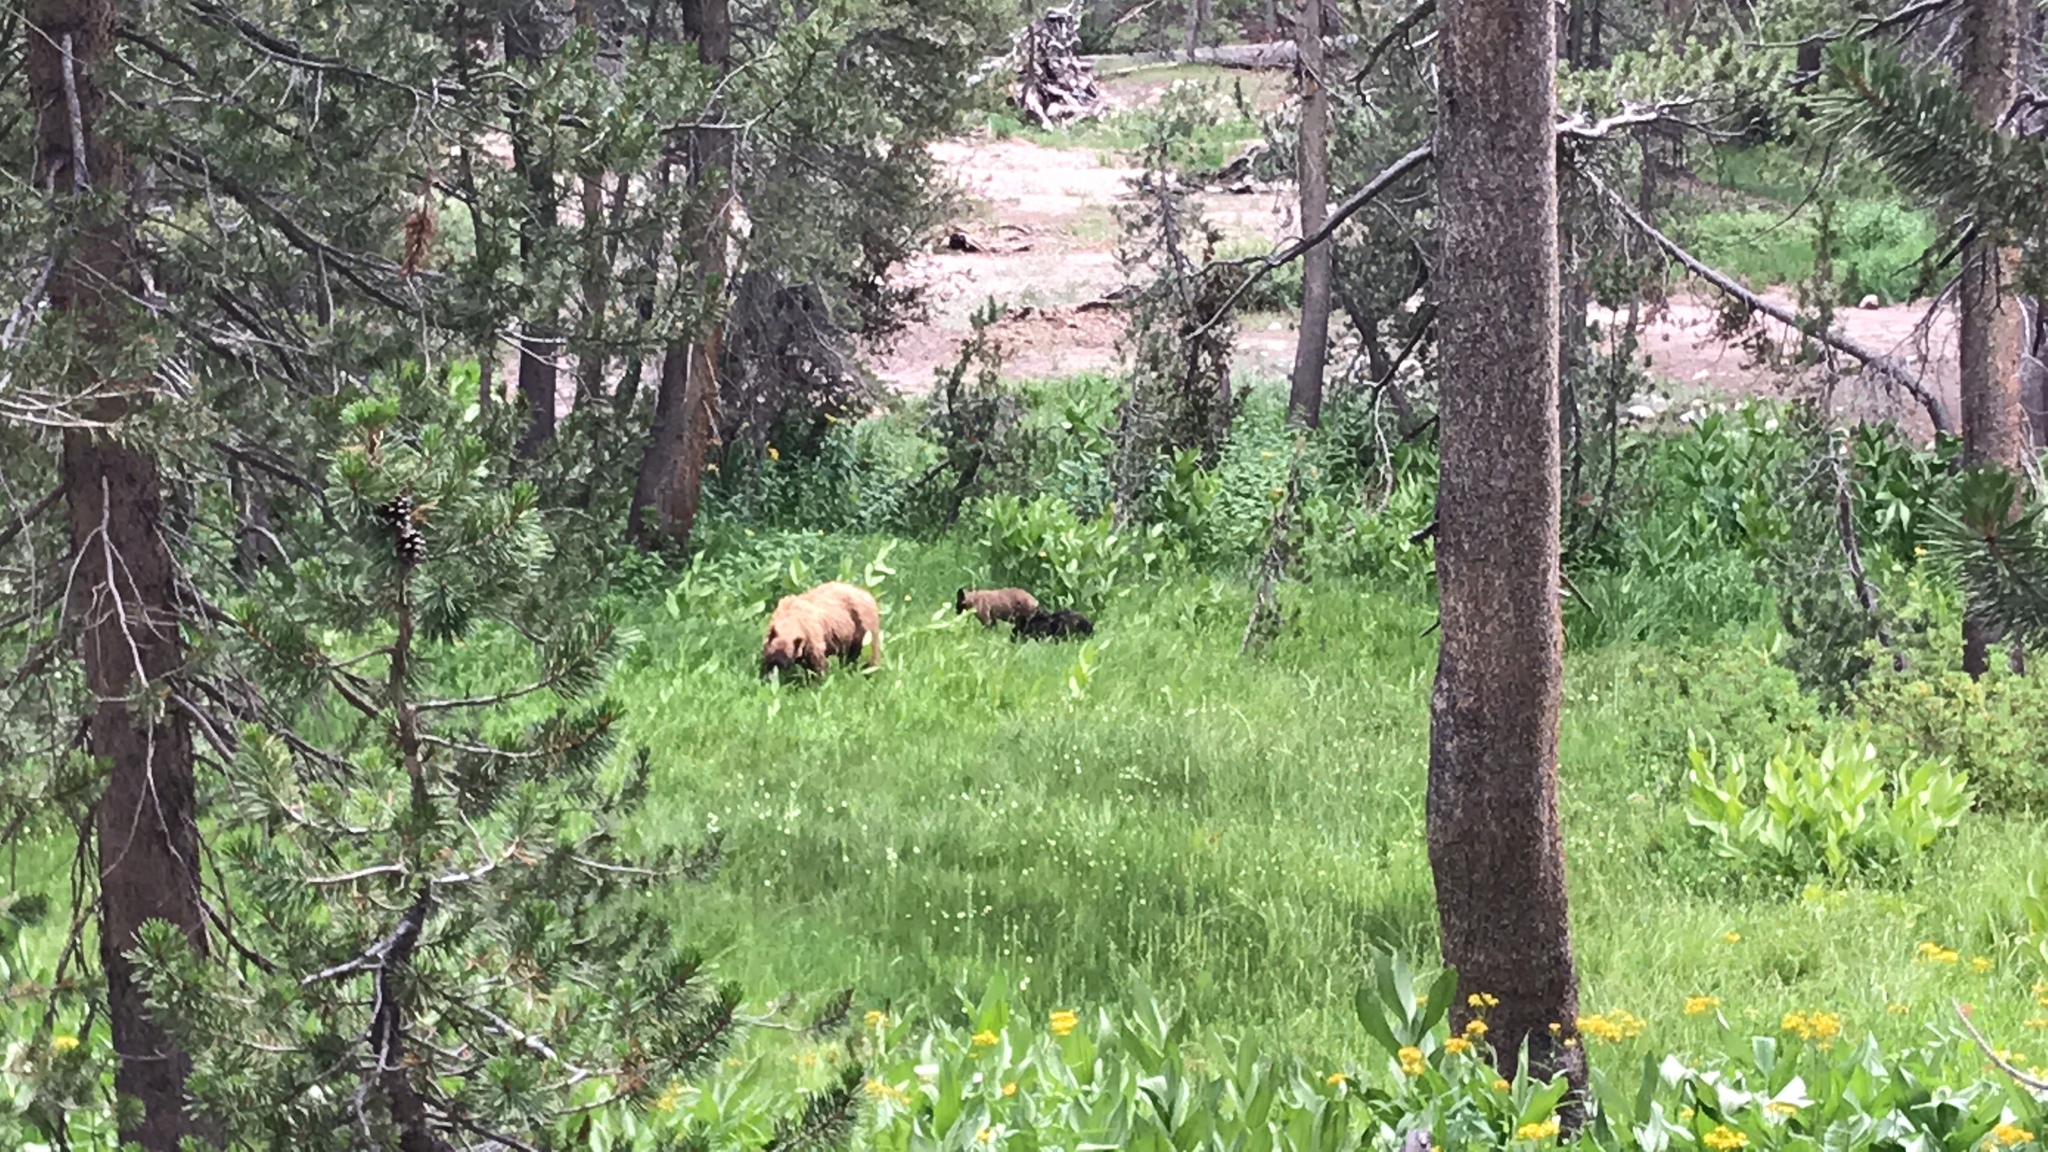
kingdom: Animalia
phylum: Chordata
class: Mammalia
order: Carnivora
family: Ursidae
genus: Ursus
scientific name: Ursus americanus
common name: American black bear
